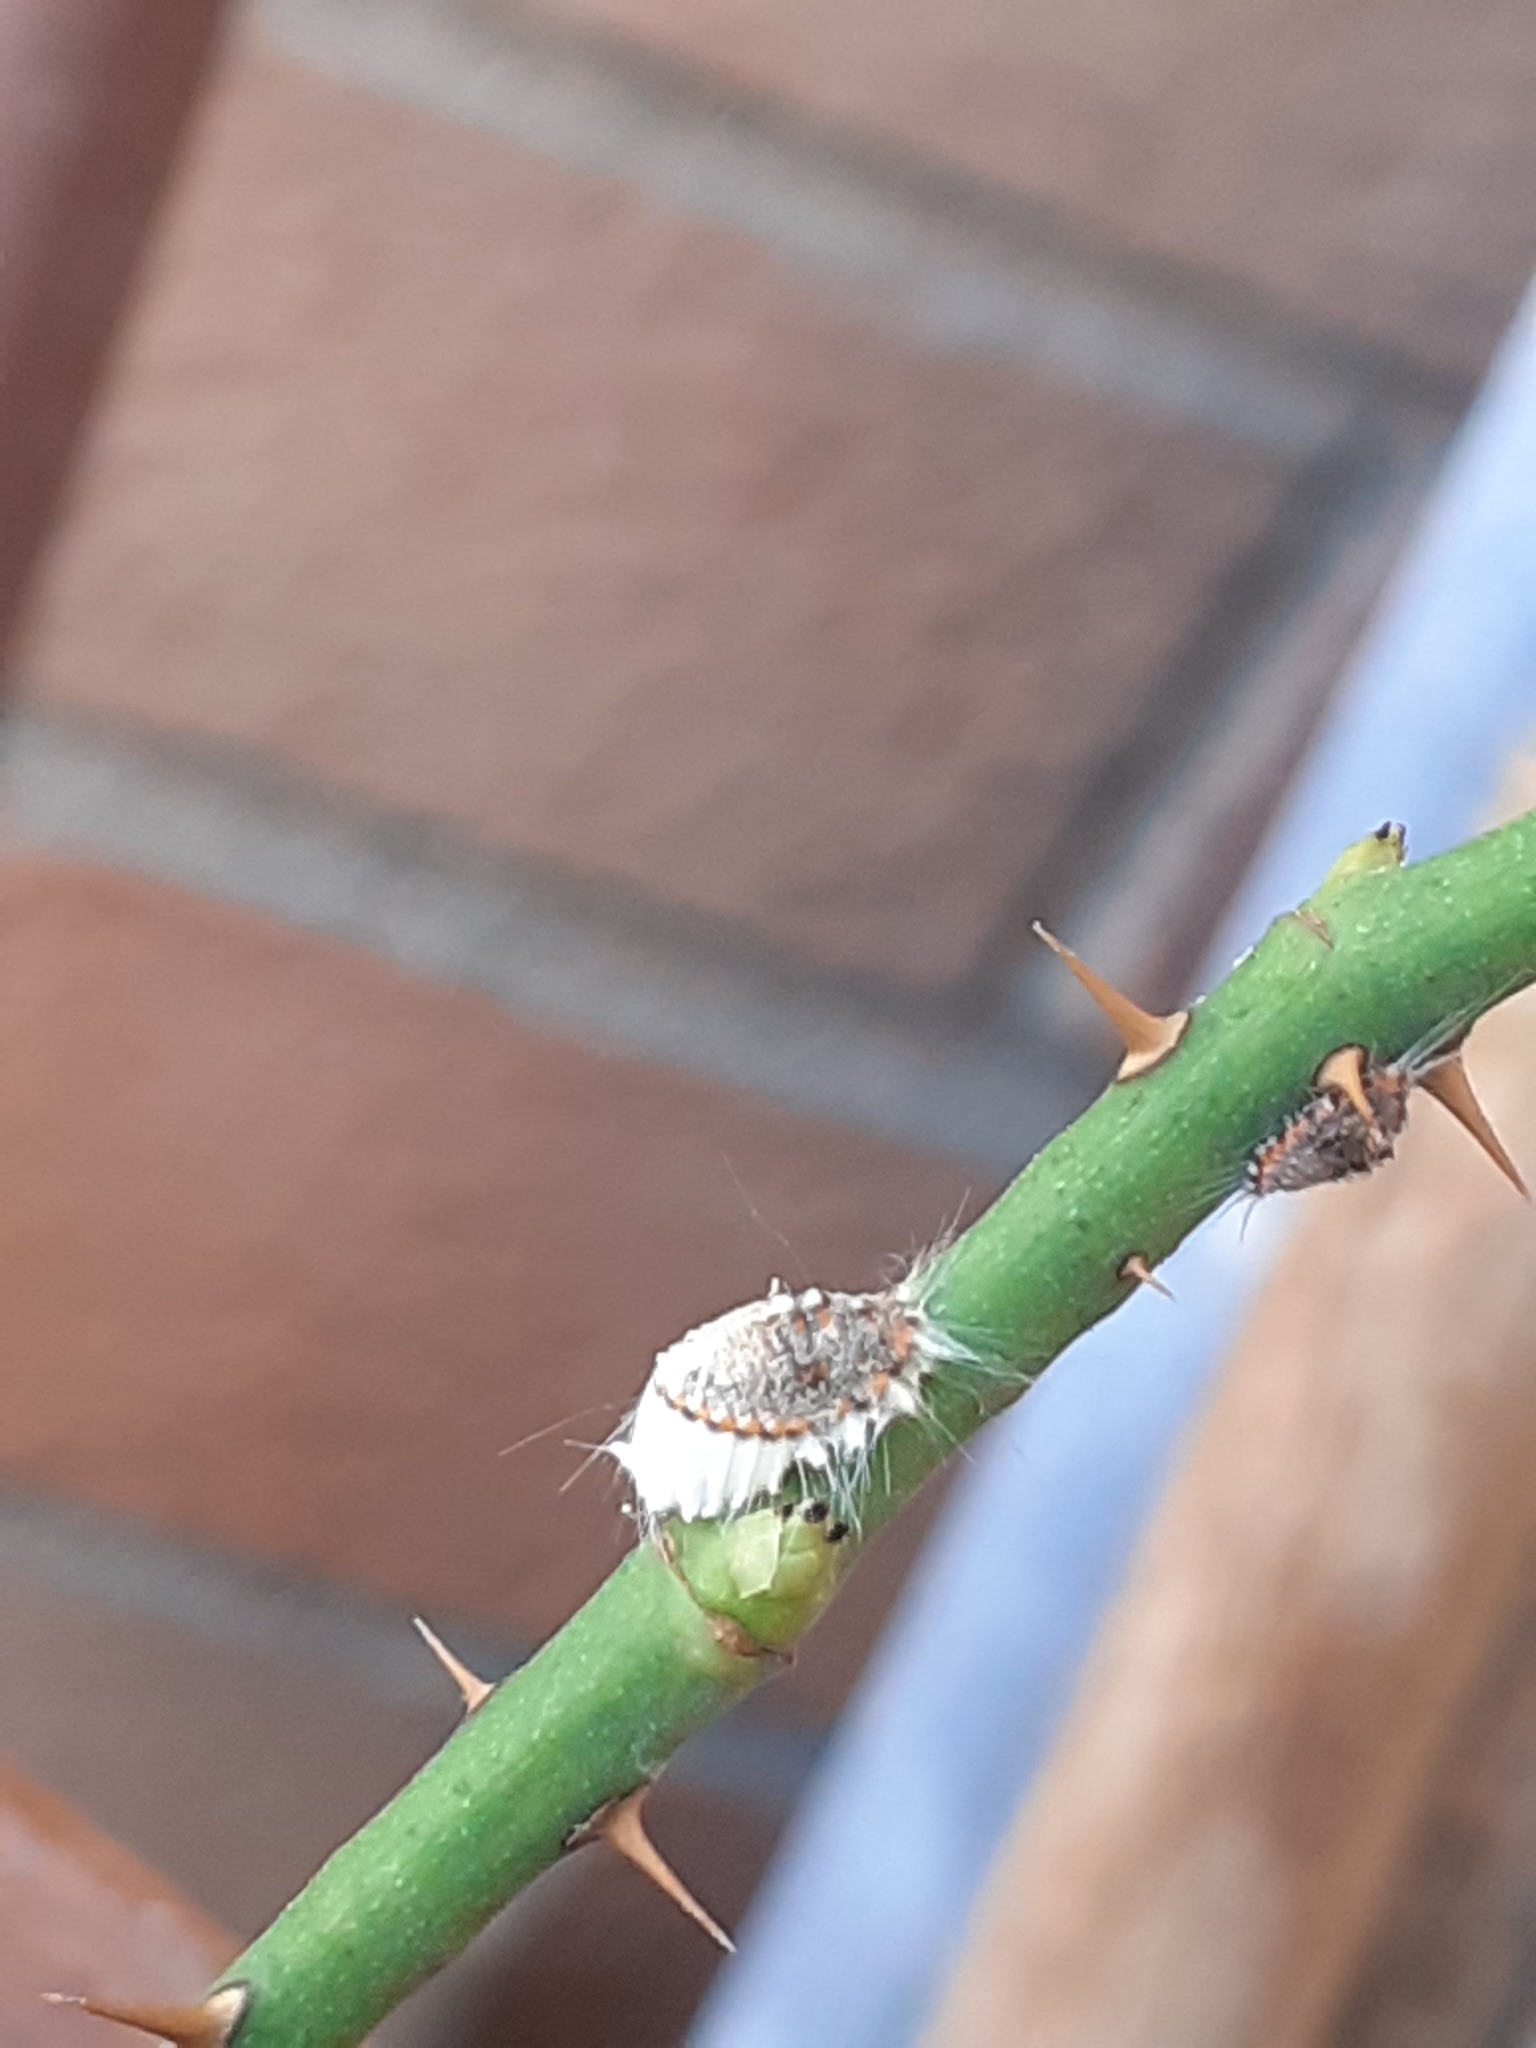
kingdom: Animalia
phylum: Arthropoda
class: Insecta
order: Hemiptera
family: Margarodidae
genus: Icerya
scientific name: Icerya purchasi
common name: Cottony cushion scale
